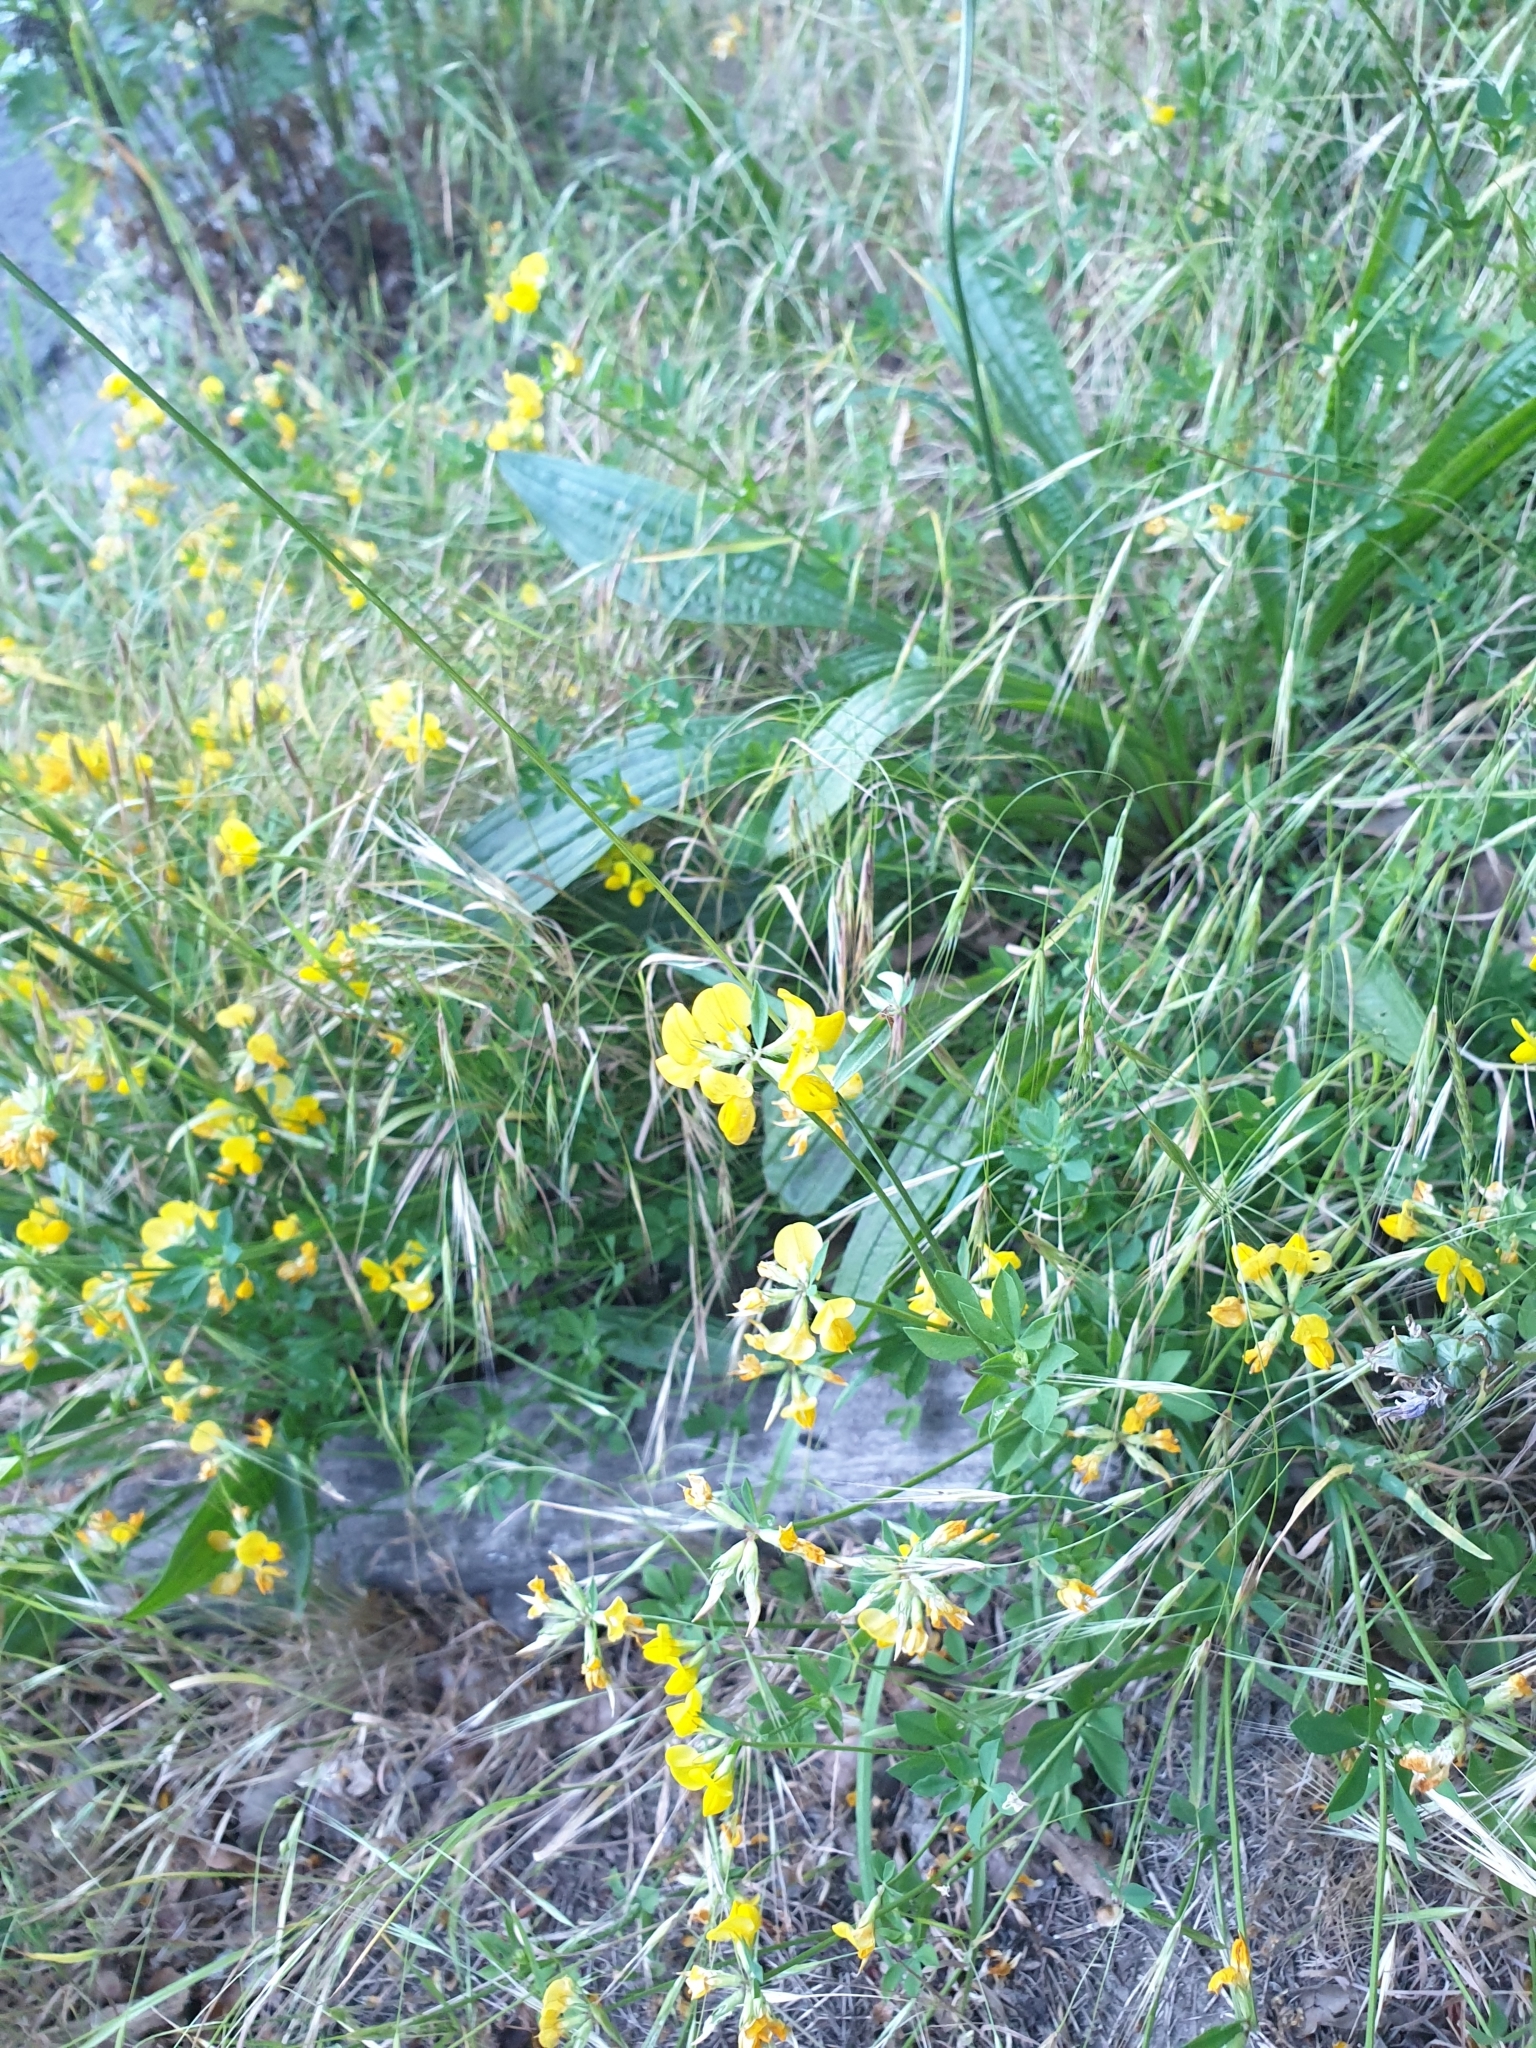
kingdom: Plantae
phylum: Tracheophyta
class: Magnoliopsida
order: Fabales
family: Fabaceae
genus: Lotus
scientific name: Lotus corniculatus
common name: Common bird's-foot-trefoil
